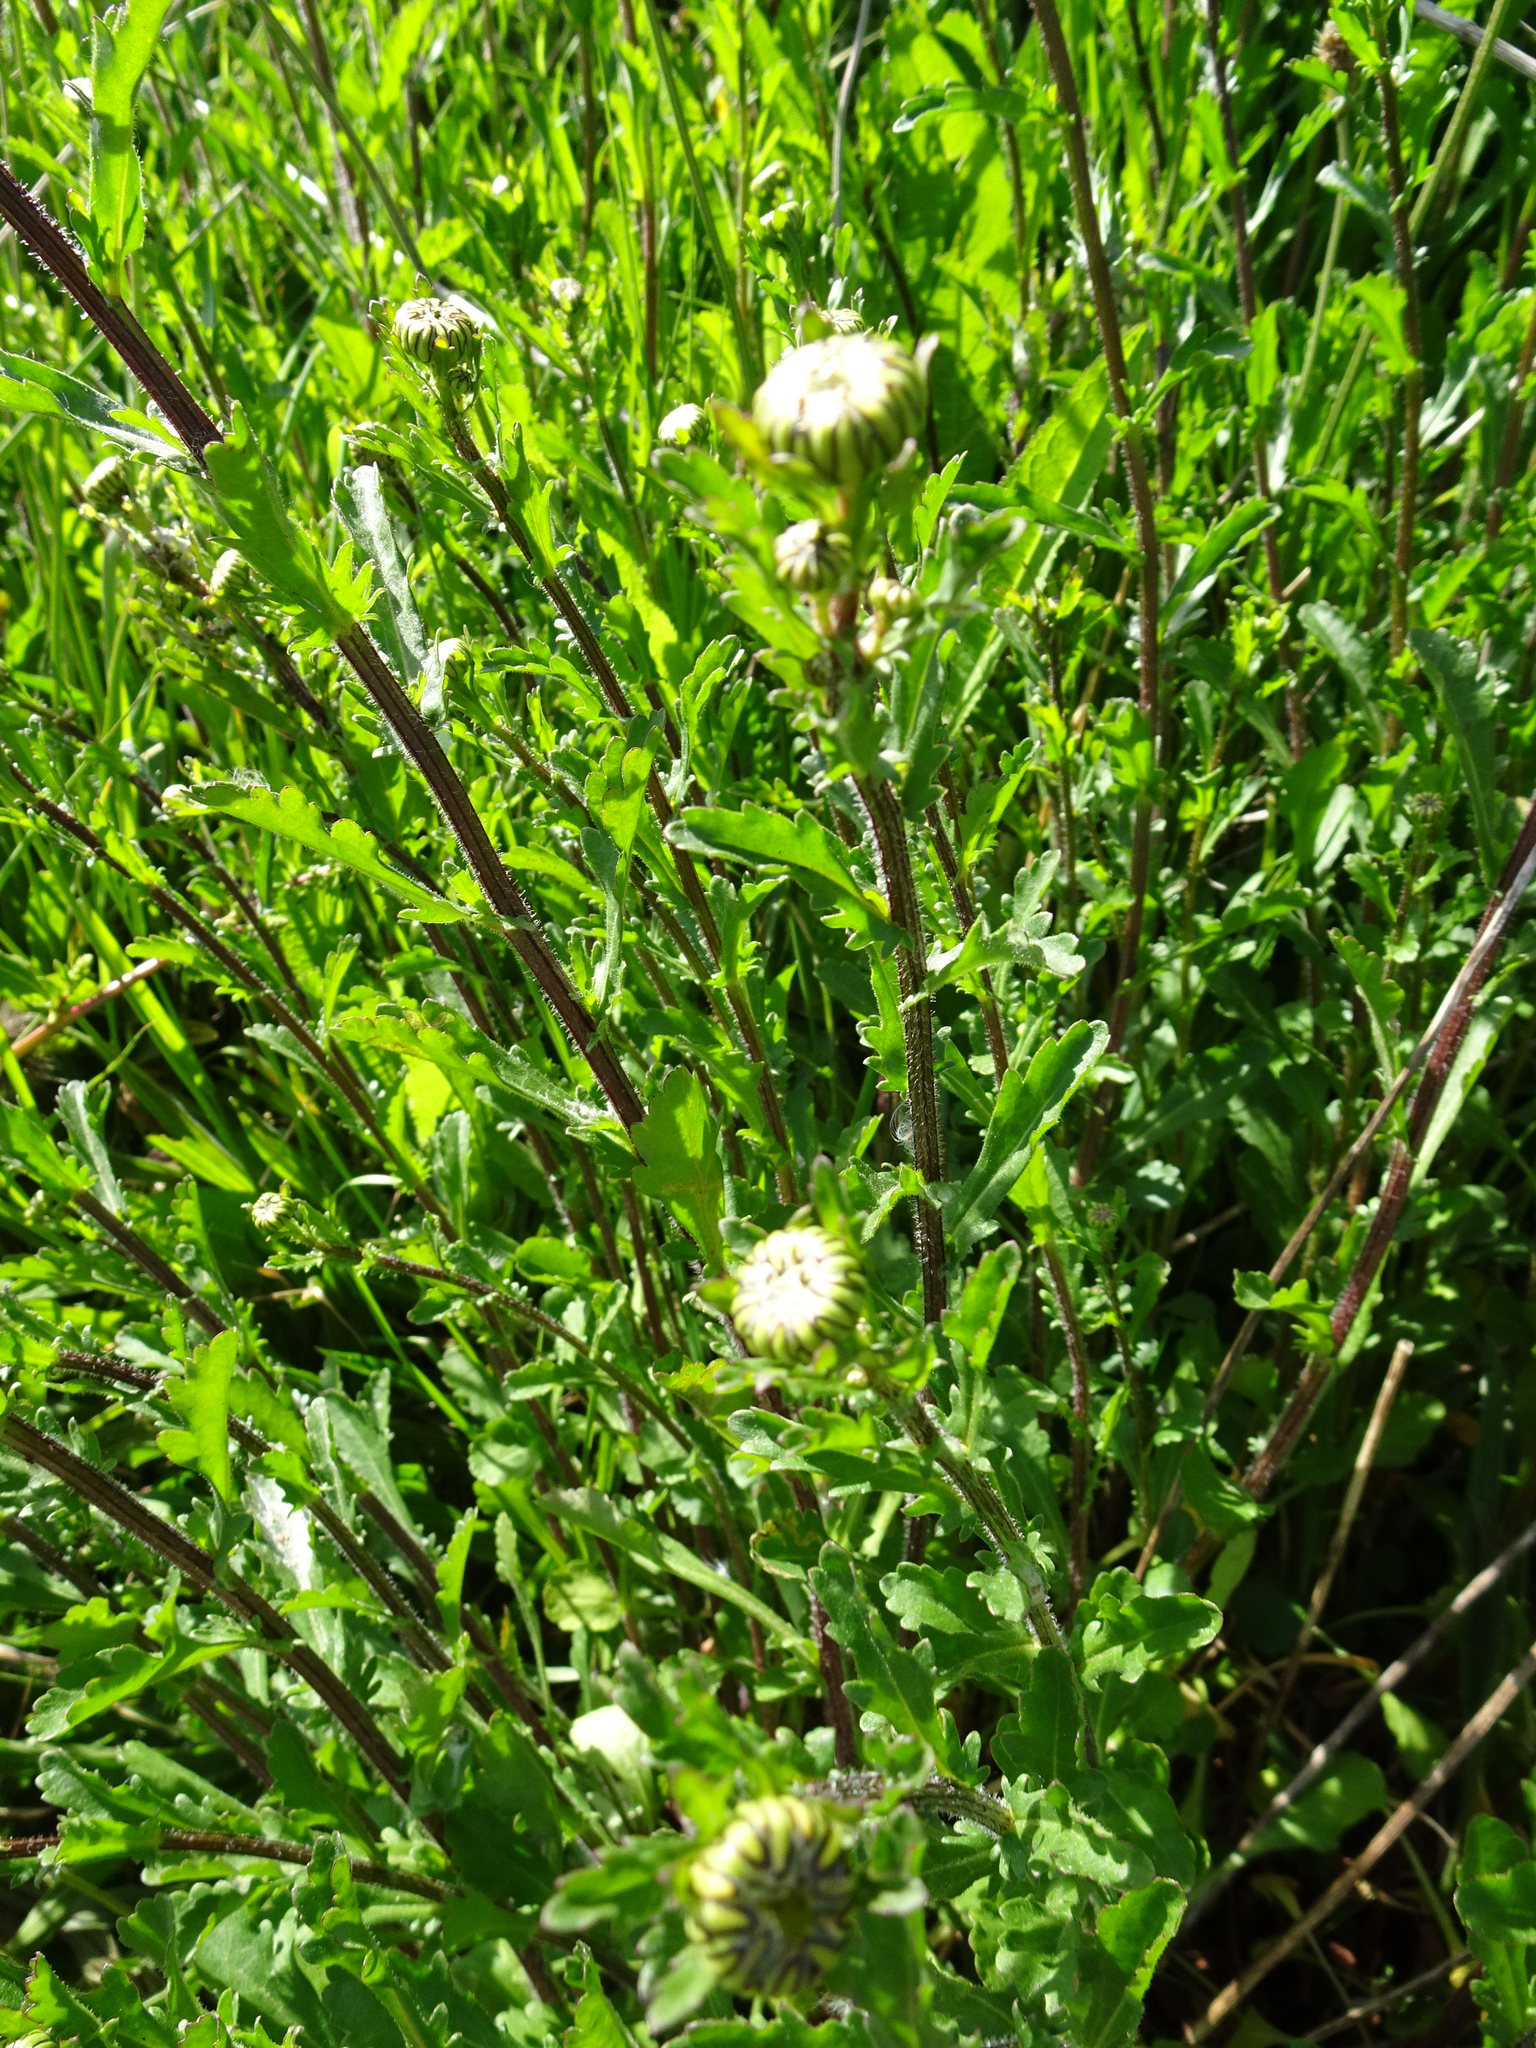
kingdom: Plantae
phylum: Tracheophyta
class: Magnoliopsida
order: Asterales
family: Asteraceae
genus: Leucanthemum
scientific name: Leucanthemum vulgare
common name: Oxeye daisy
